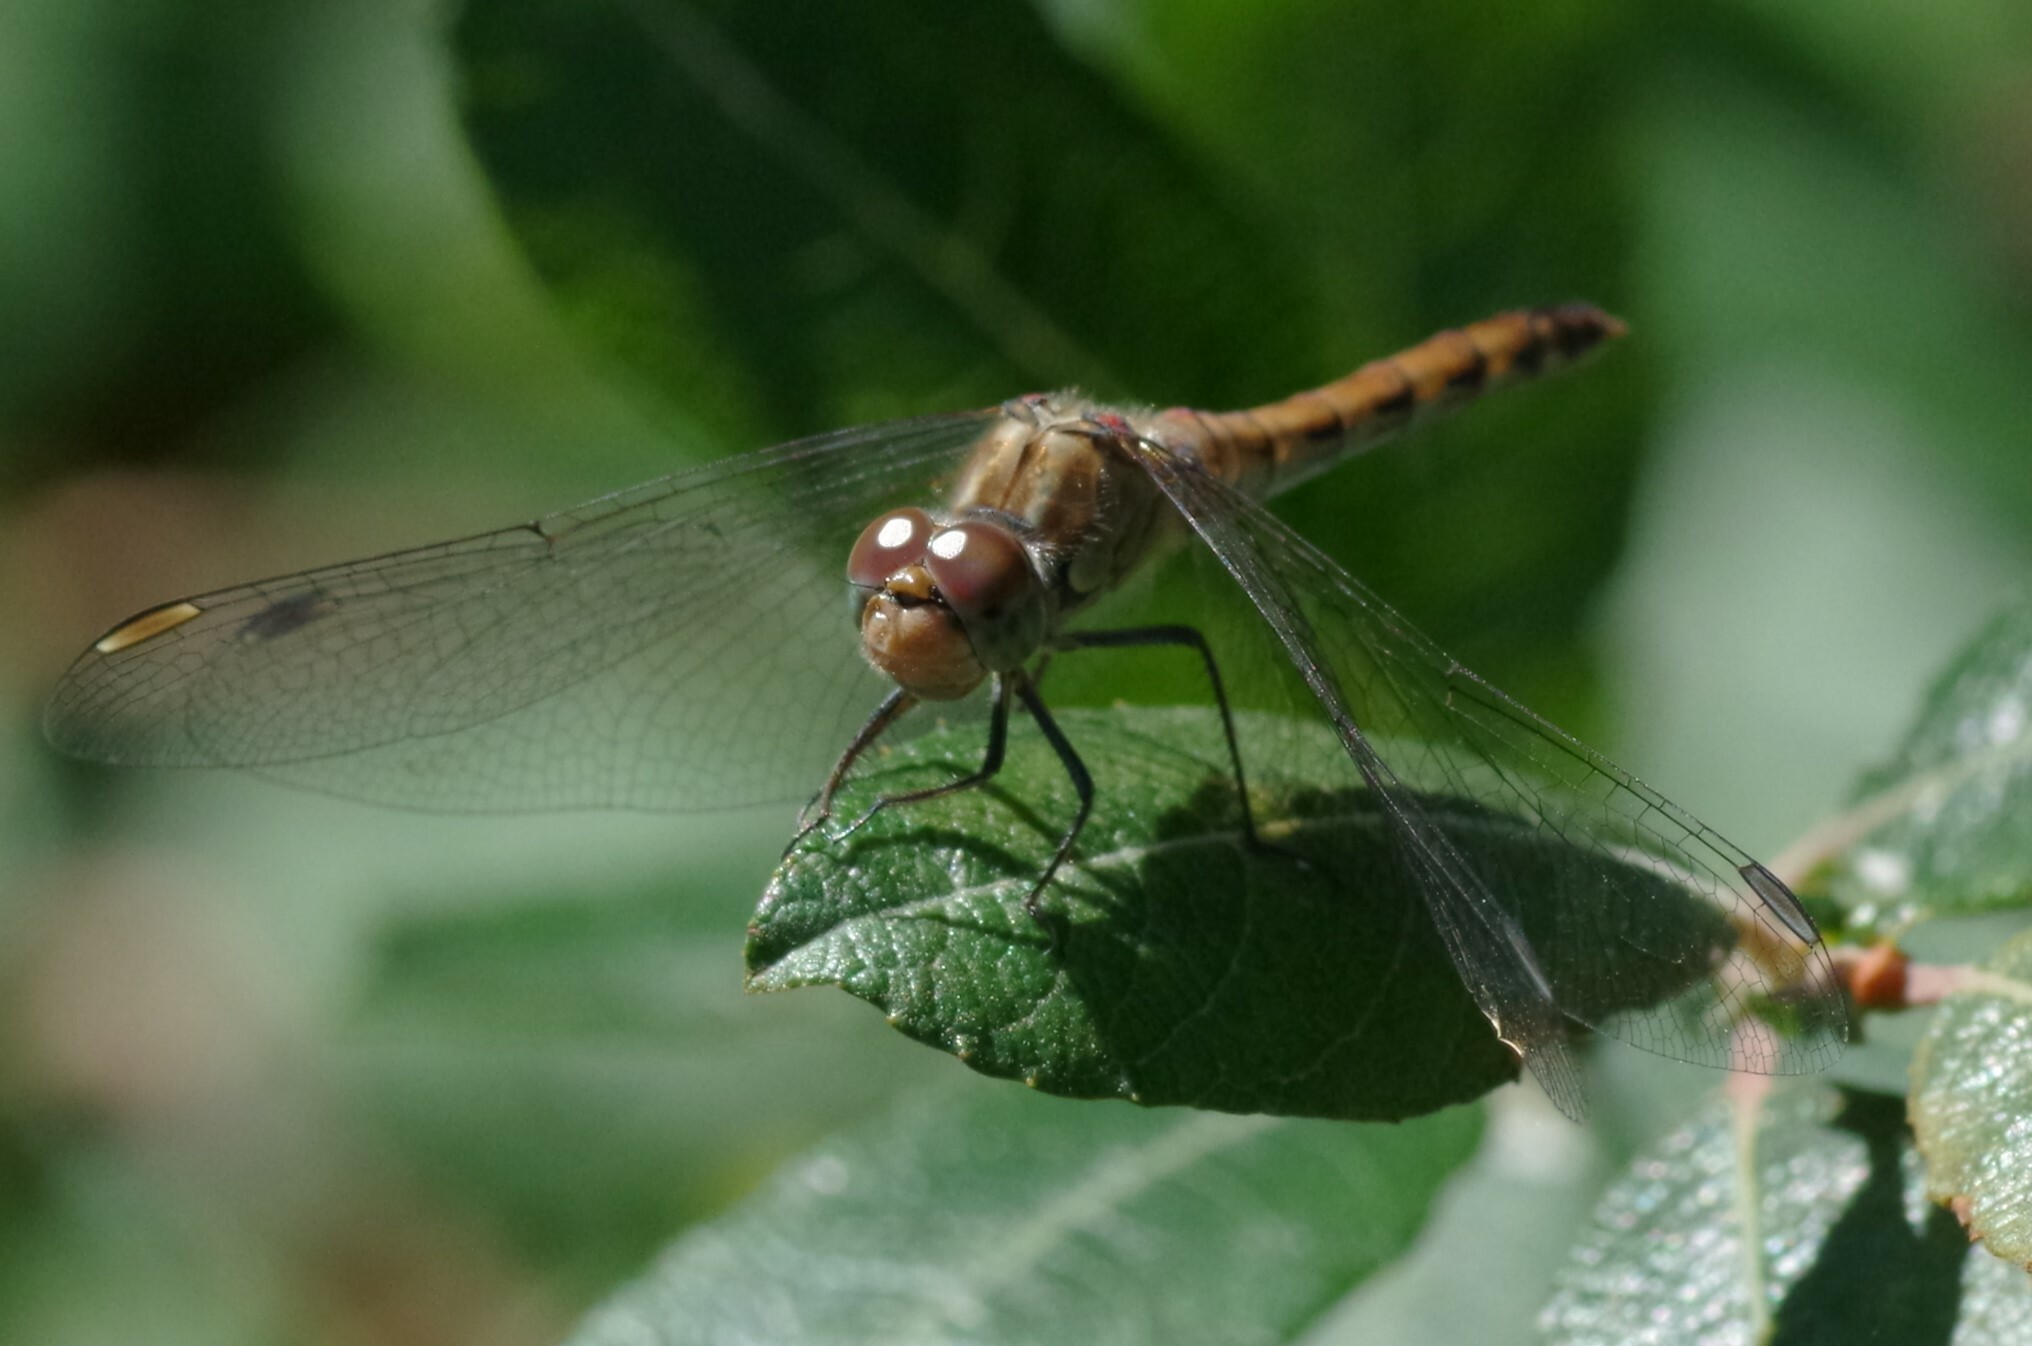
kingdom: Animalia
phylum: Arthropoda
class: Insecta
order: Odonata
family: Libellulidae
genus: Sympetrum
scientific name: Sympetrum striolatum
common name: Common darter
